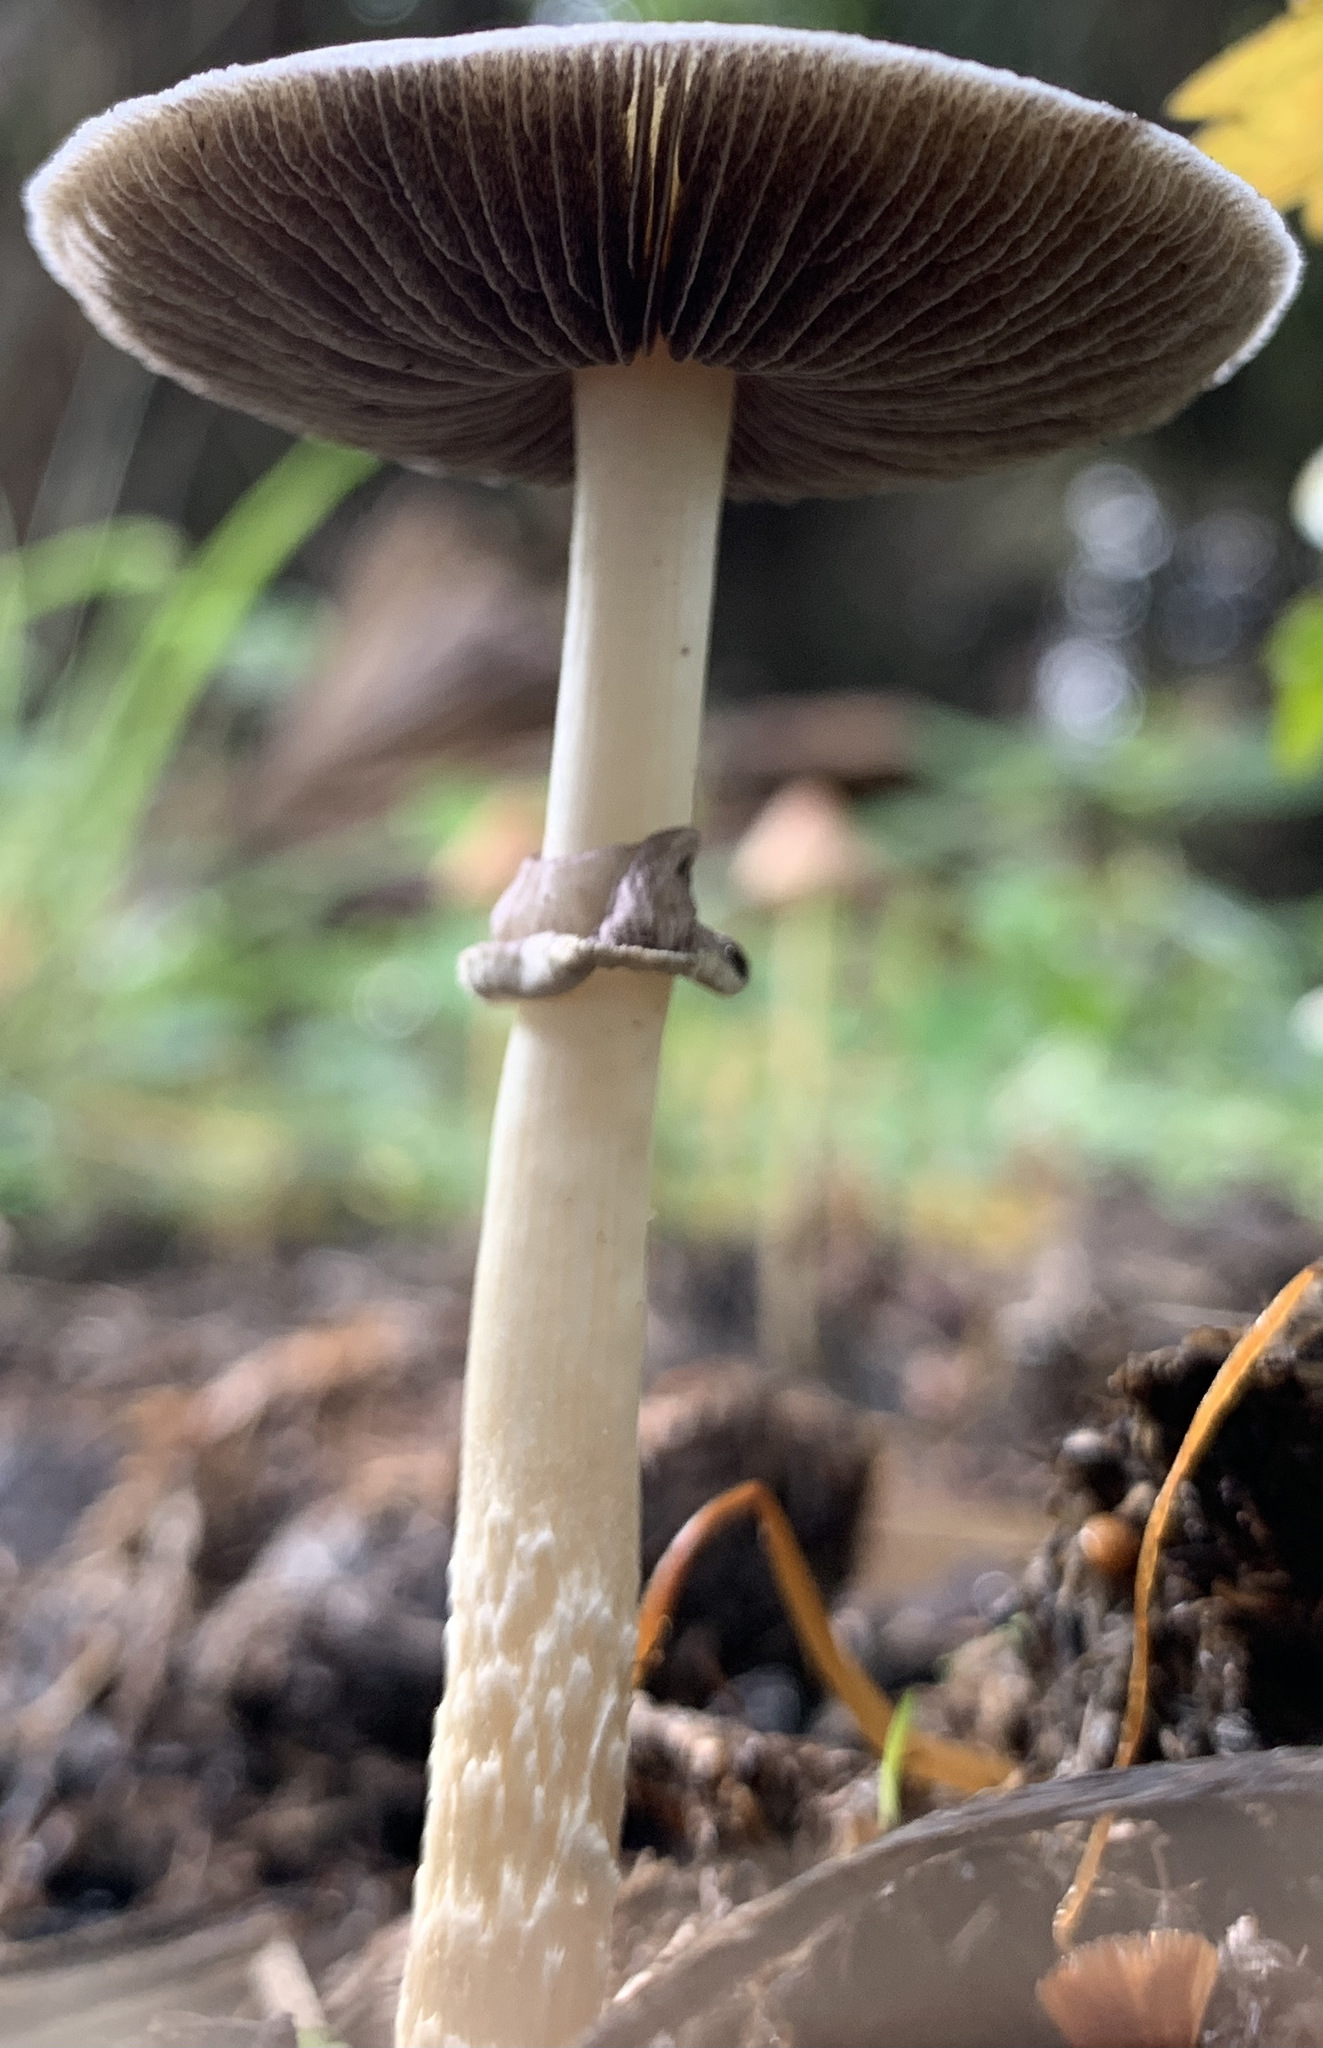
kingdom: Fungi
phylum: Basidiomycota
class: Agaricomycetes
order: Agaricales
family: Hymenogastraceae
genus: Psilocybe
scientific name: Psilocybe cubensis
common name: Golden brownie
